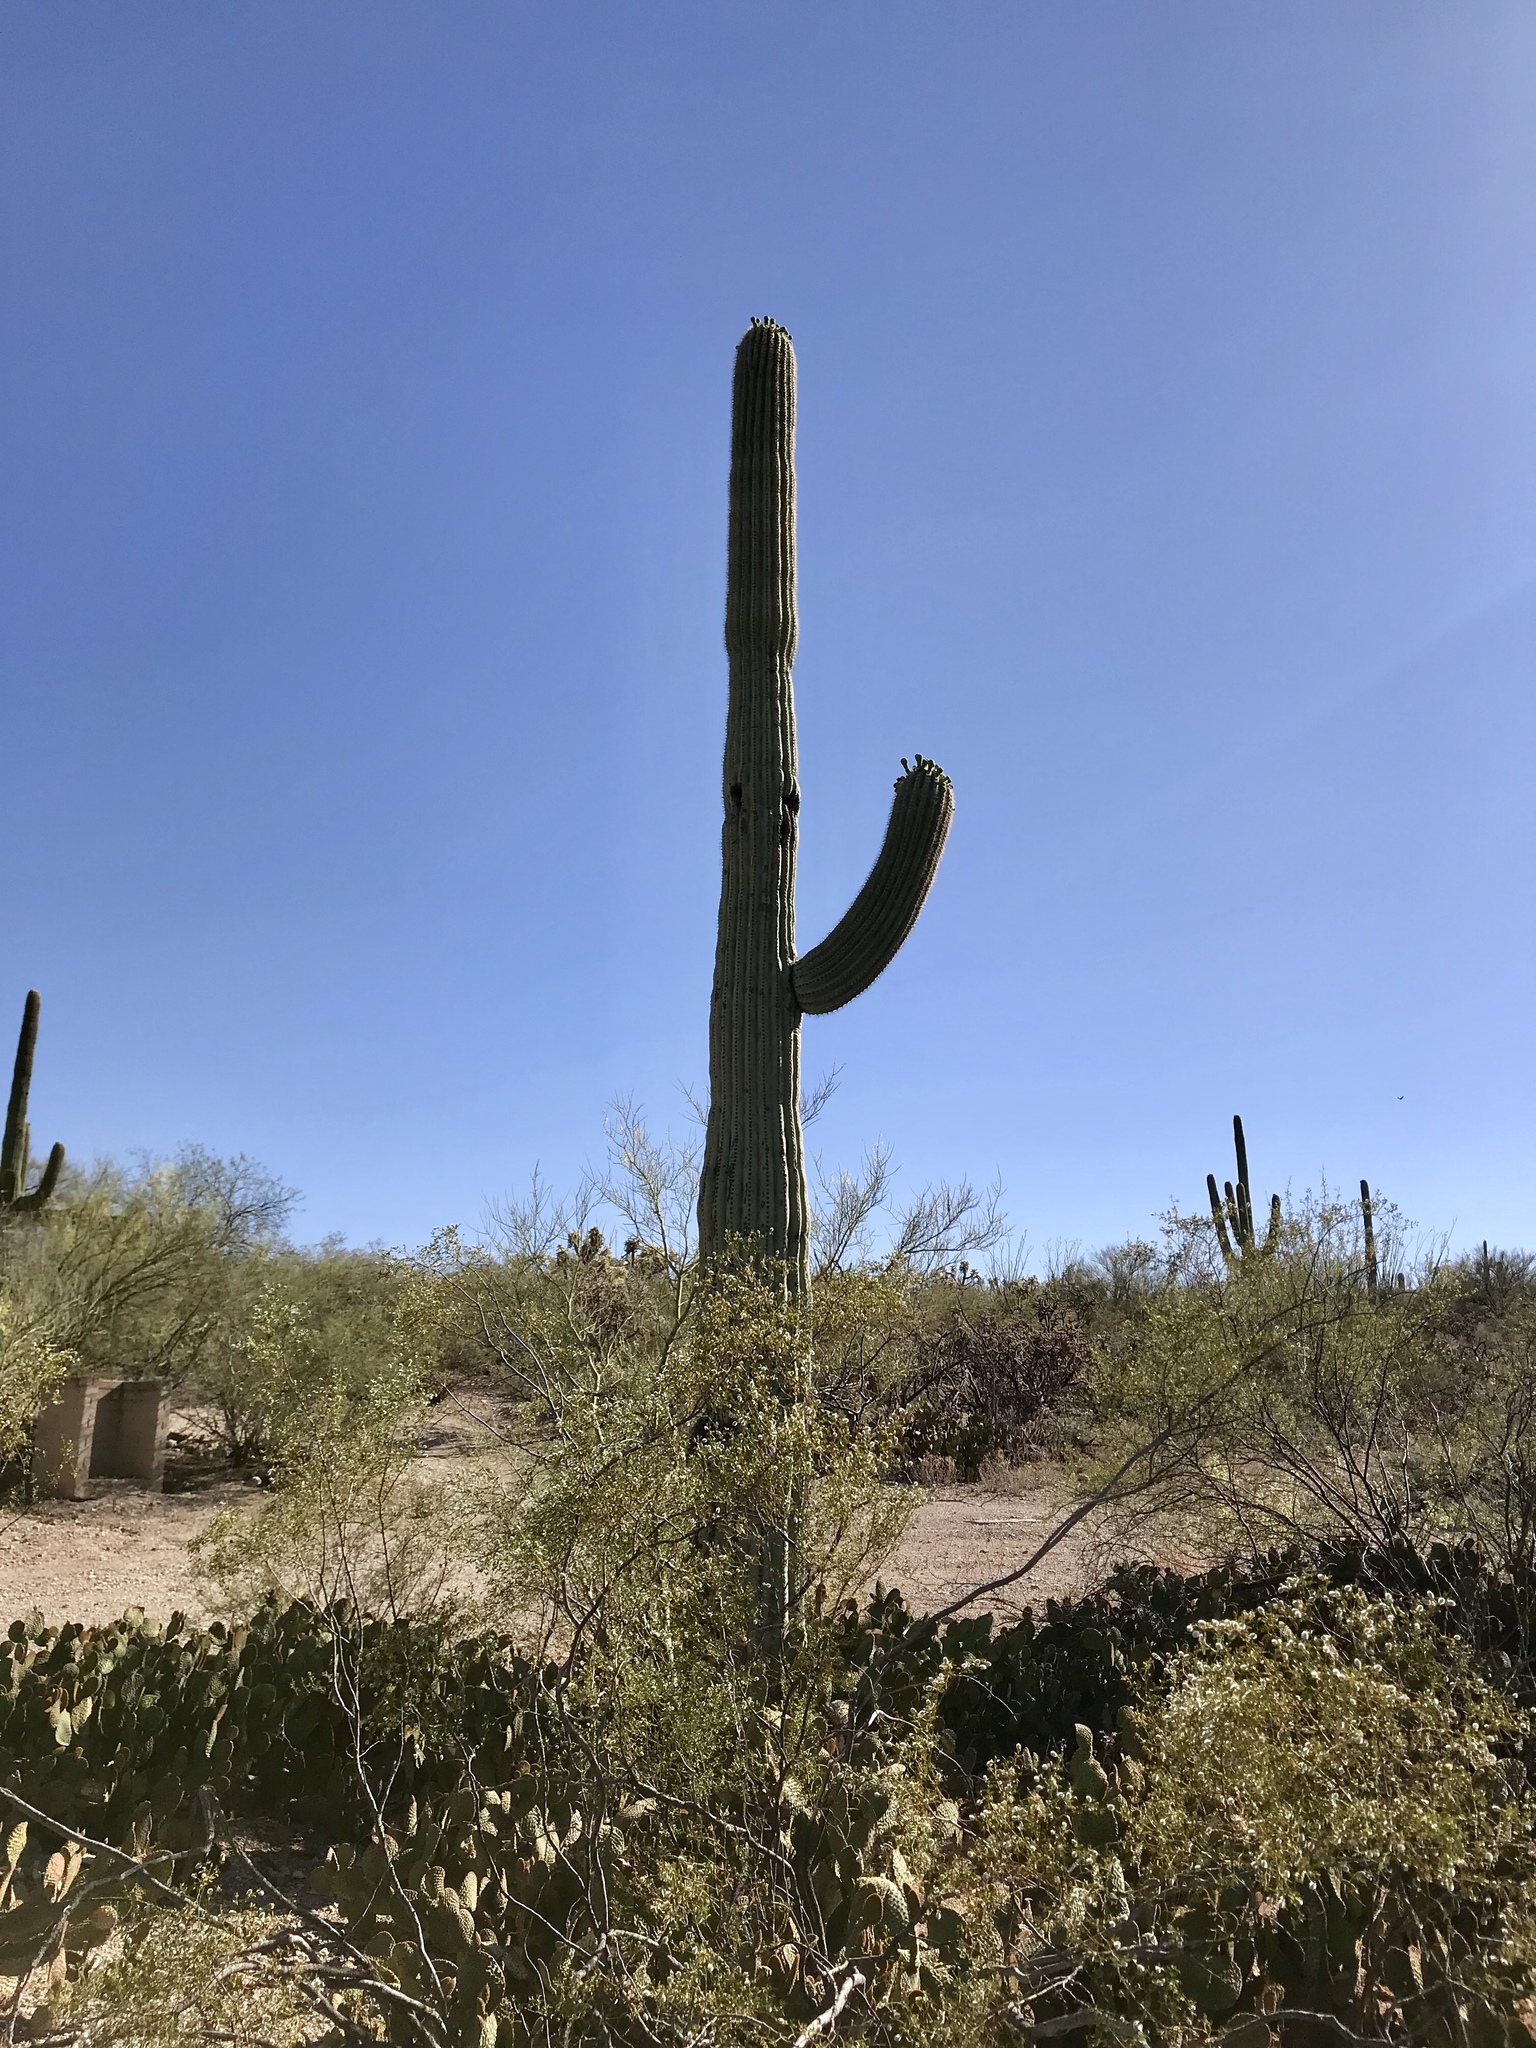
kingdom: Plantae
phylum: Tracheophyta
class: Magnoliopsida
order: Caryophyllales
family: Cactaceae
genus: Carnegiea
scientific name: Carnegiea gigantea
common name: Saguaro
